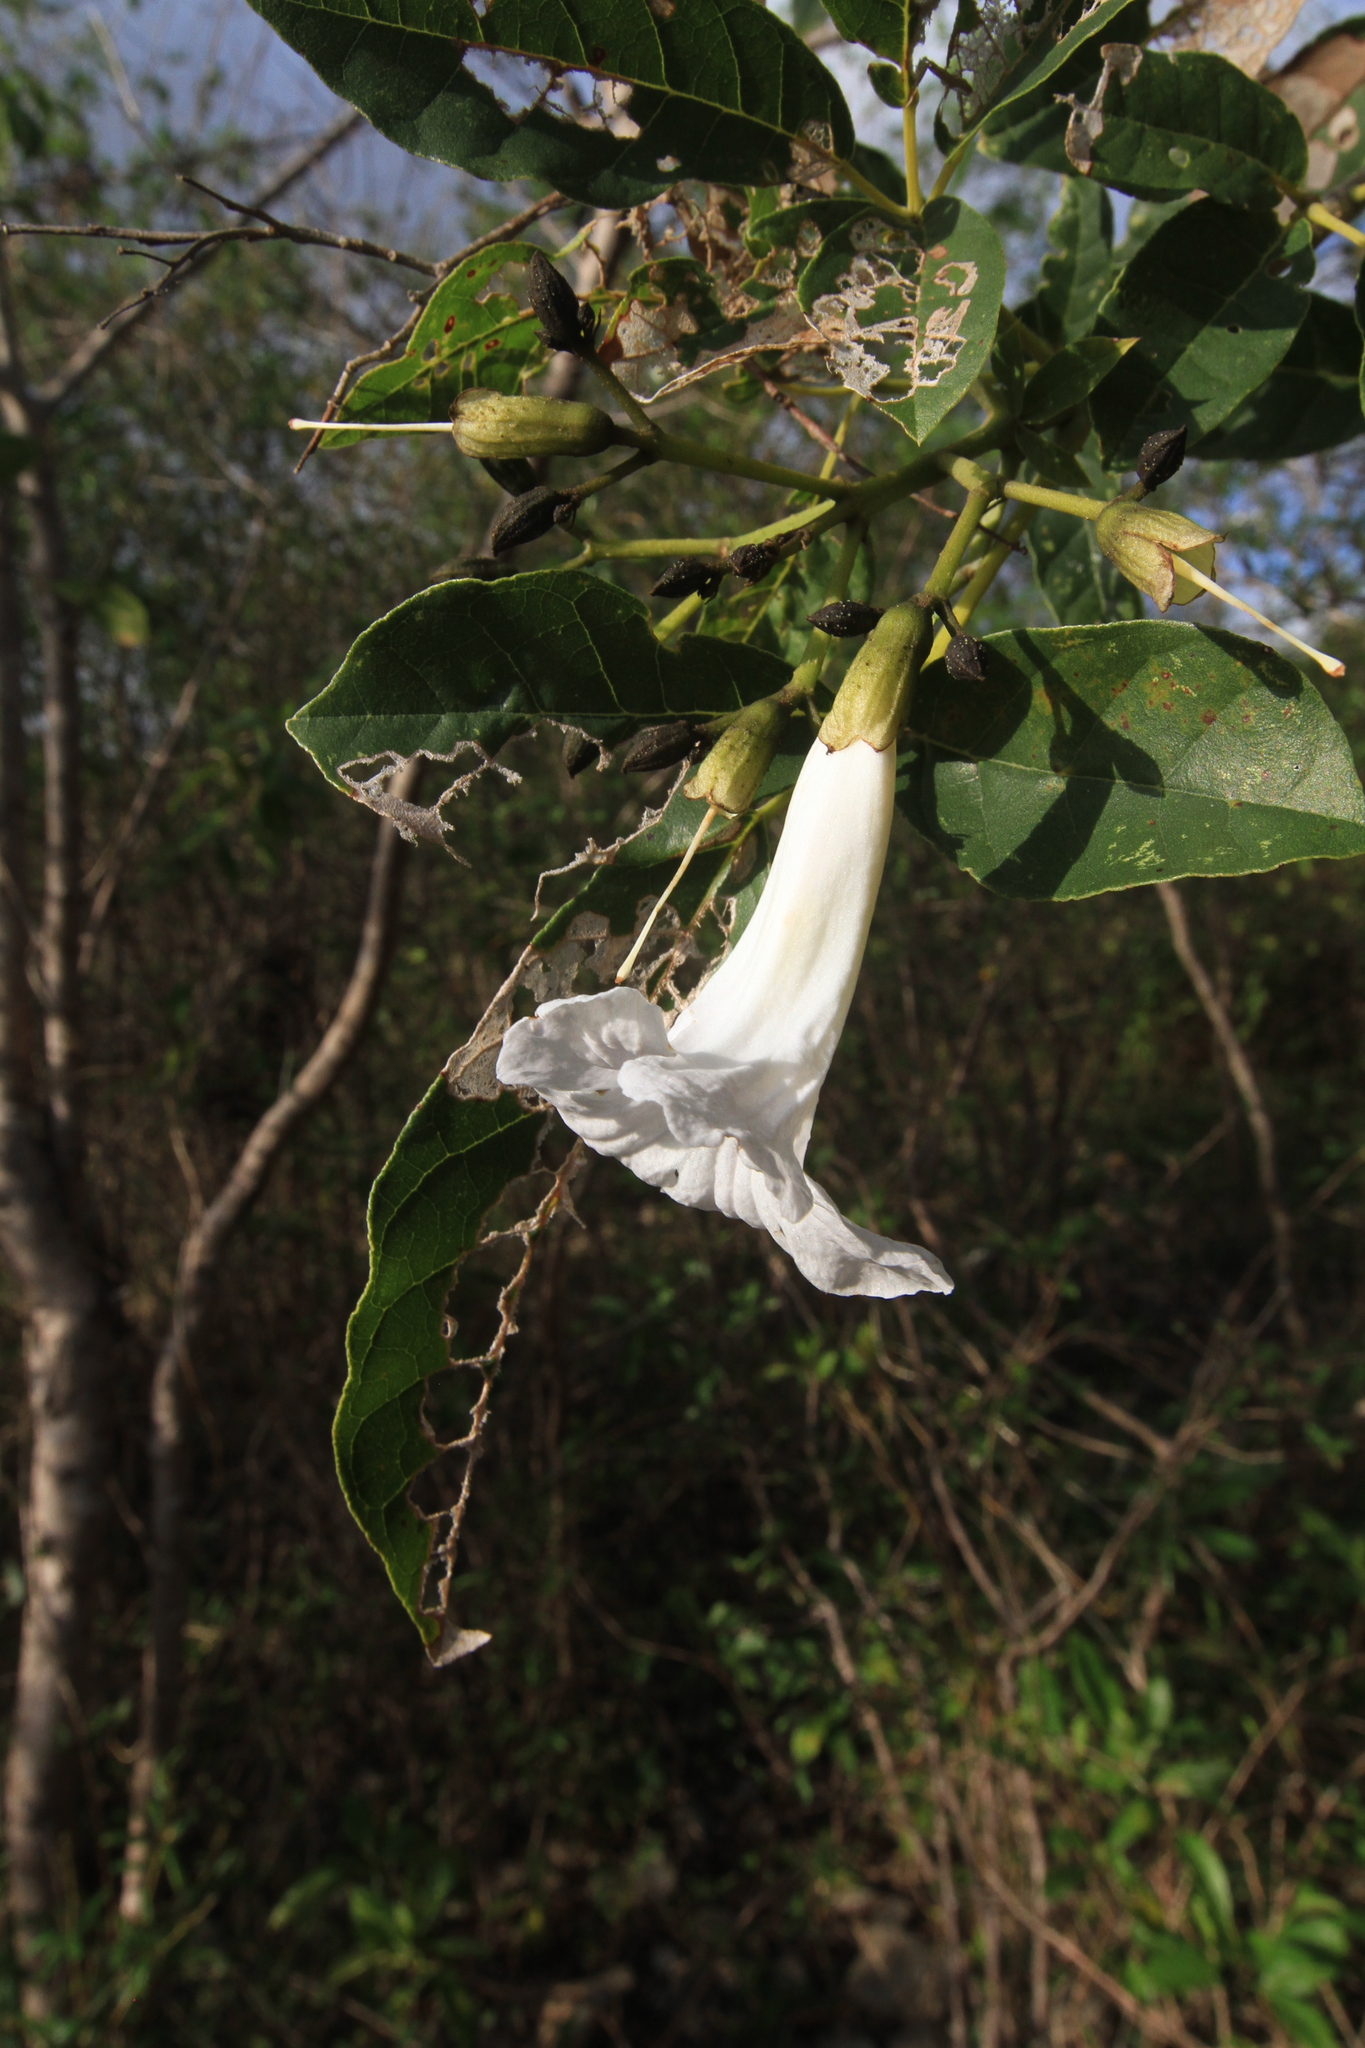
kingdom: Plantae
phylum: Tracheophyta
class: Magnoliopsida
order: Lamiales
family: Bignoniaceae
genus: Tabebuia
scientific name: Tabebuia calcicola
